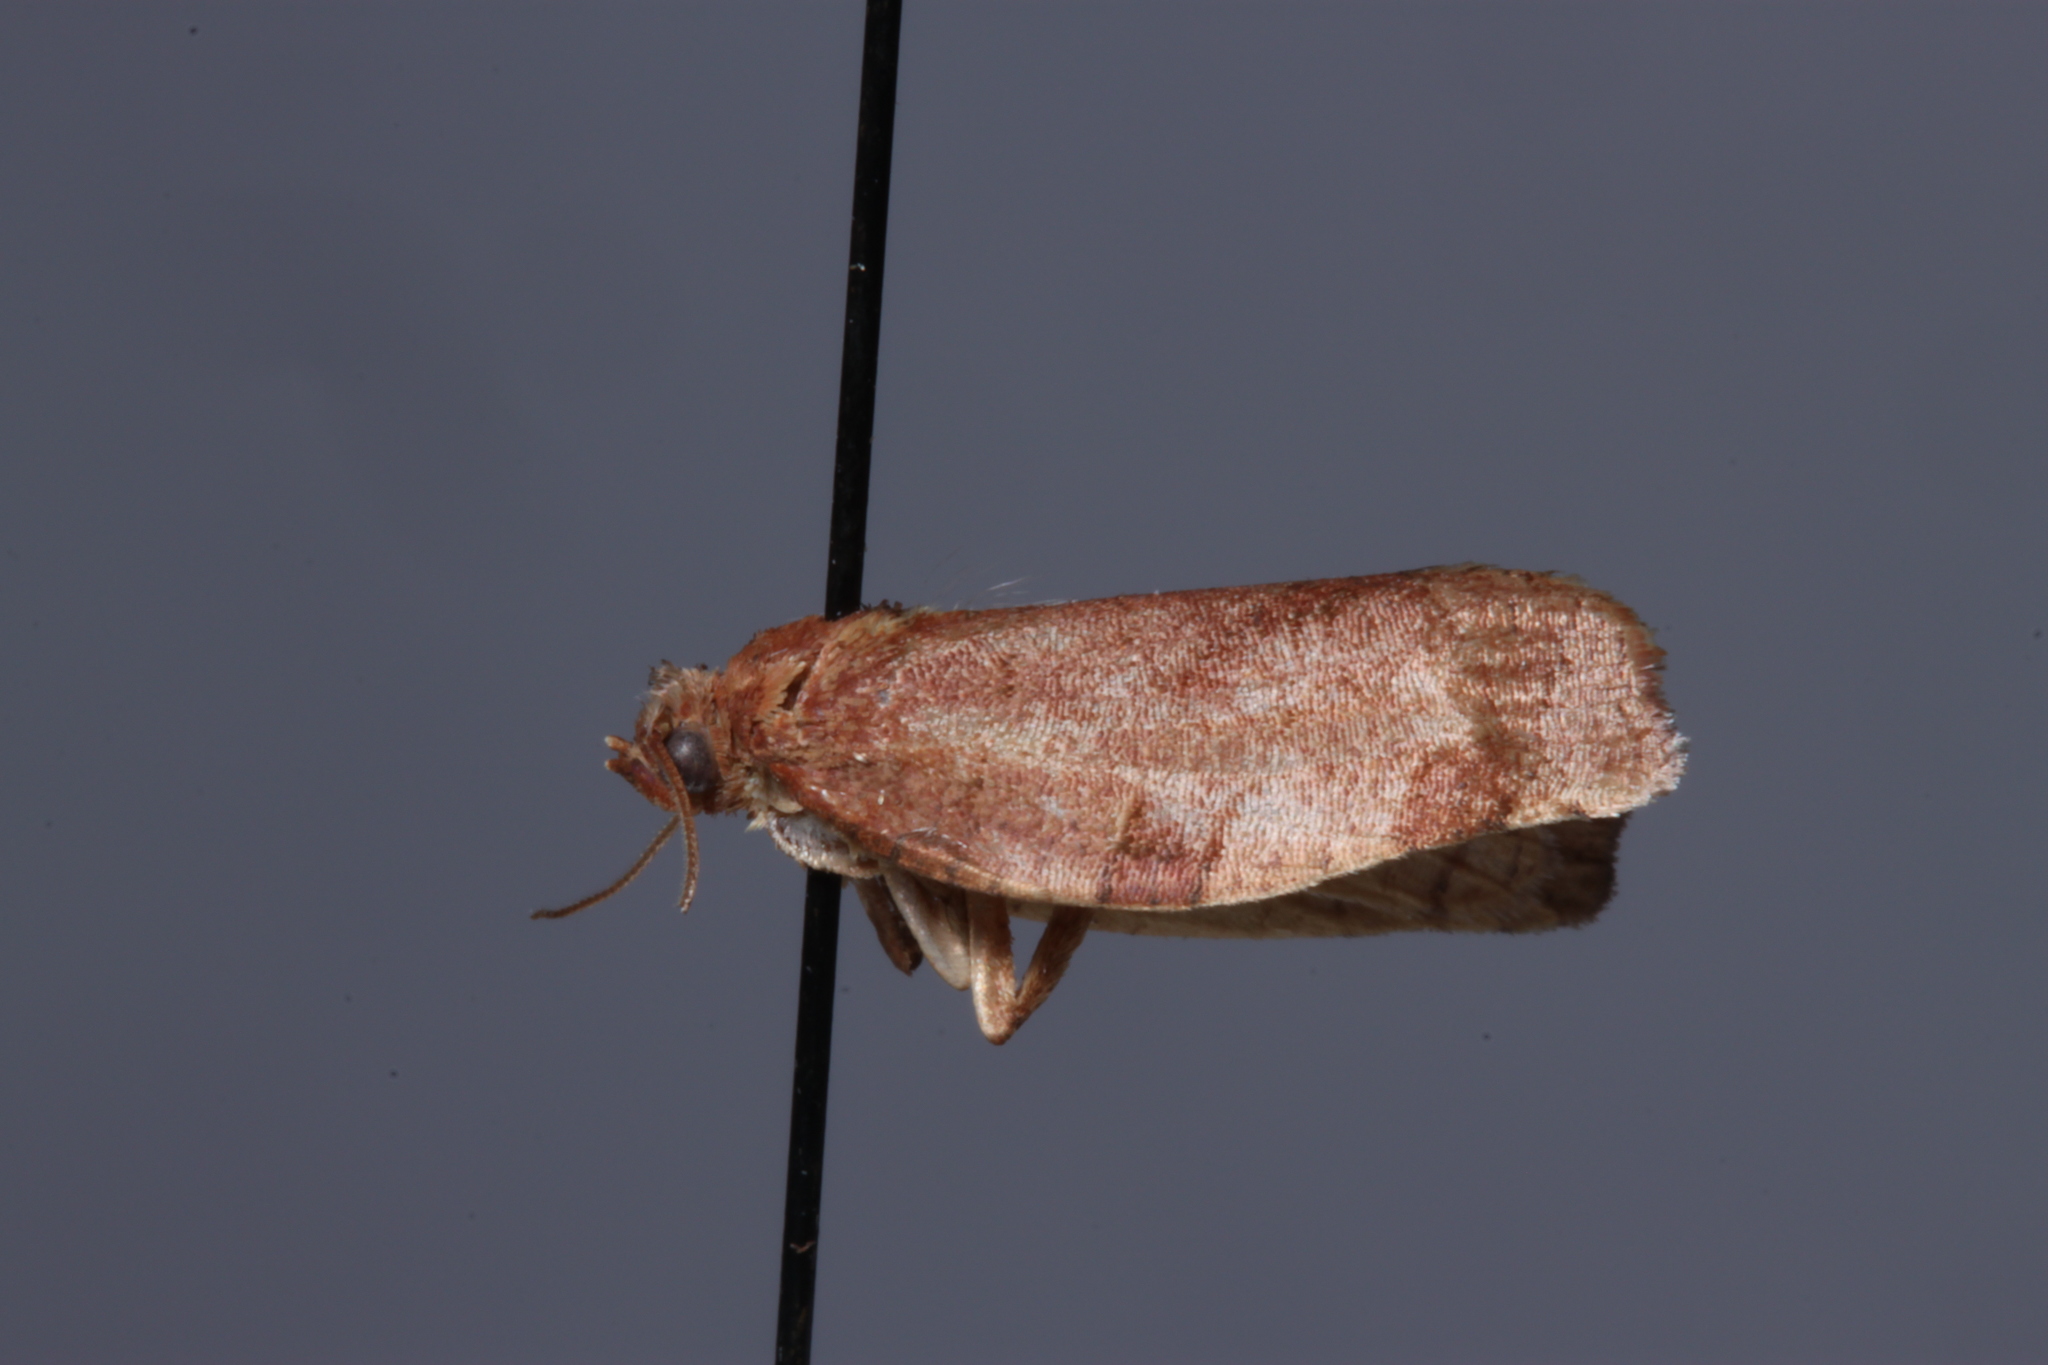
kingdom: Animalia
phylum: Arthropoda
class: Insecta
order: Lepidoptera
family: Tortricidae
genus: Choristoneura
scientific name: Choristoneura rosaceana
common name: Oblique-banded leafroller moth
